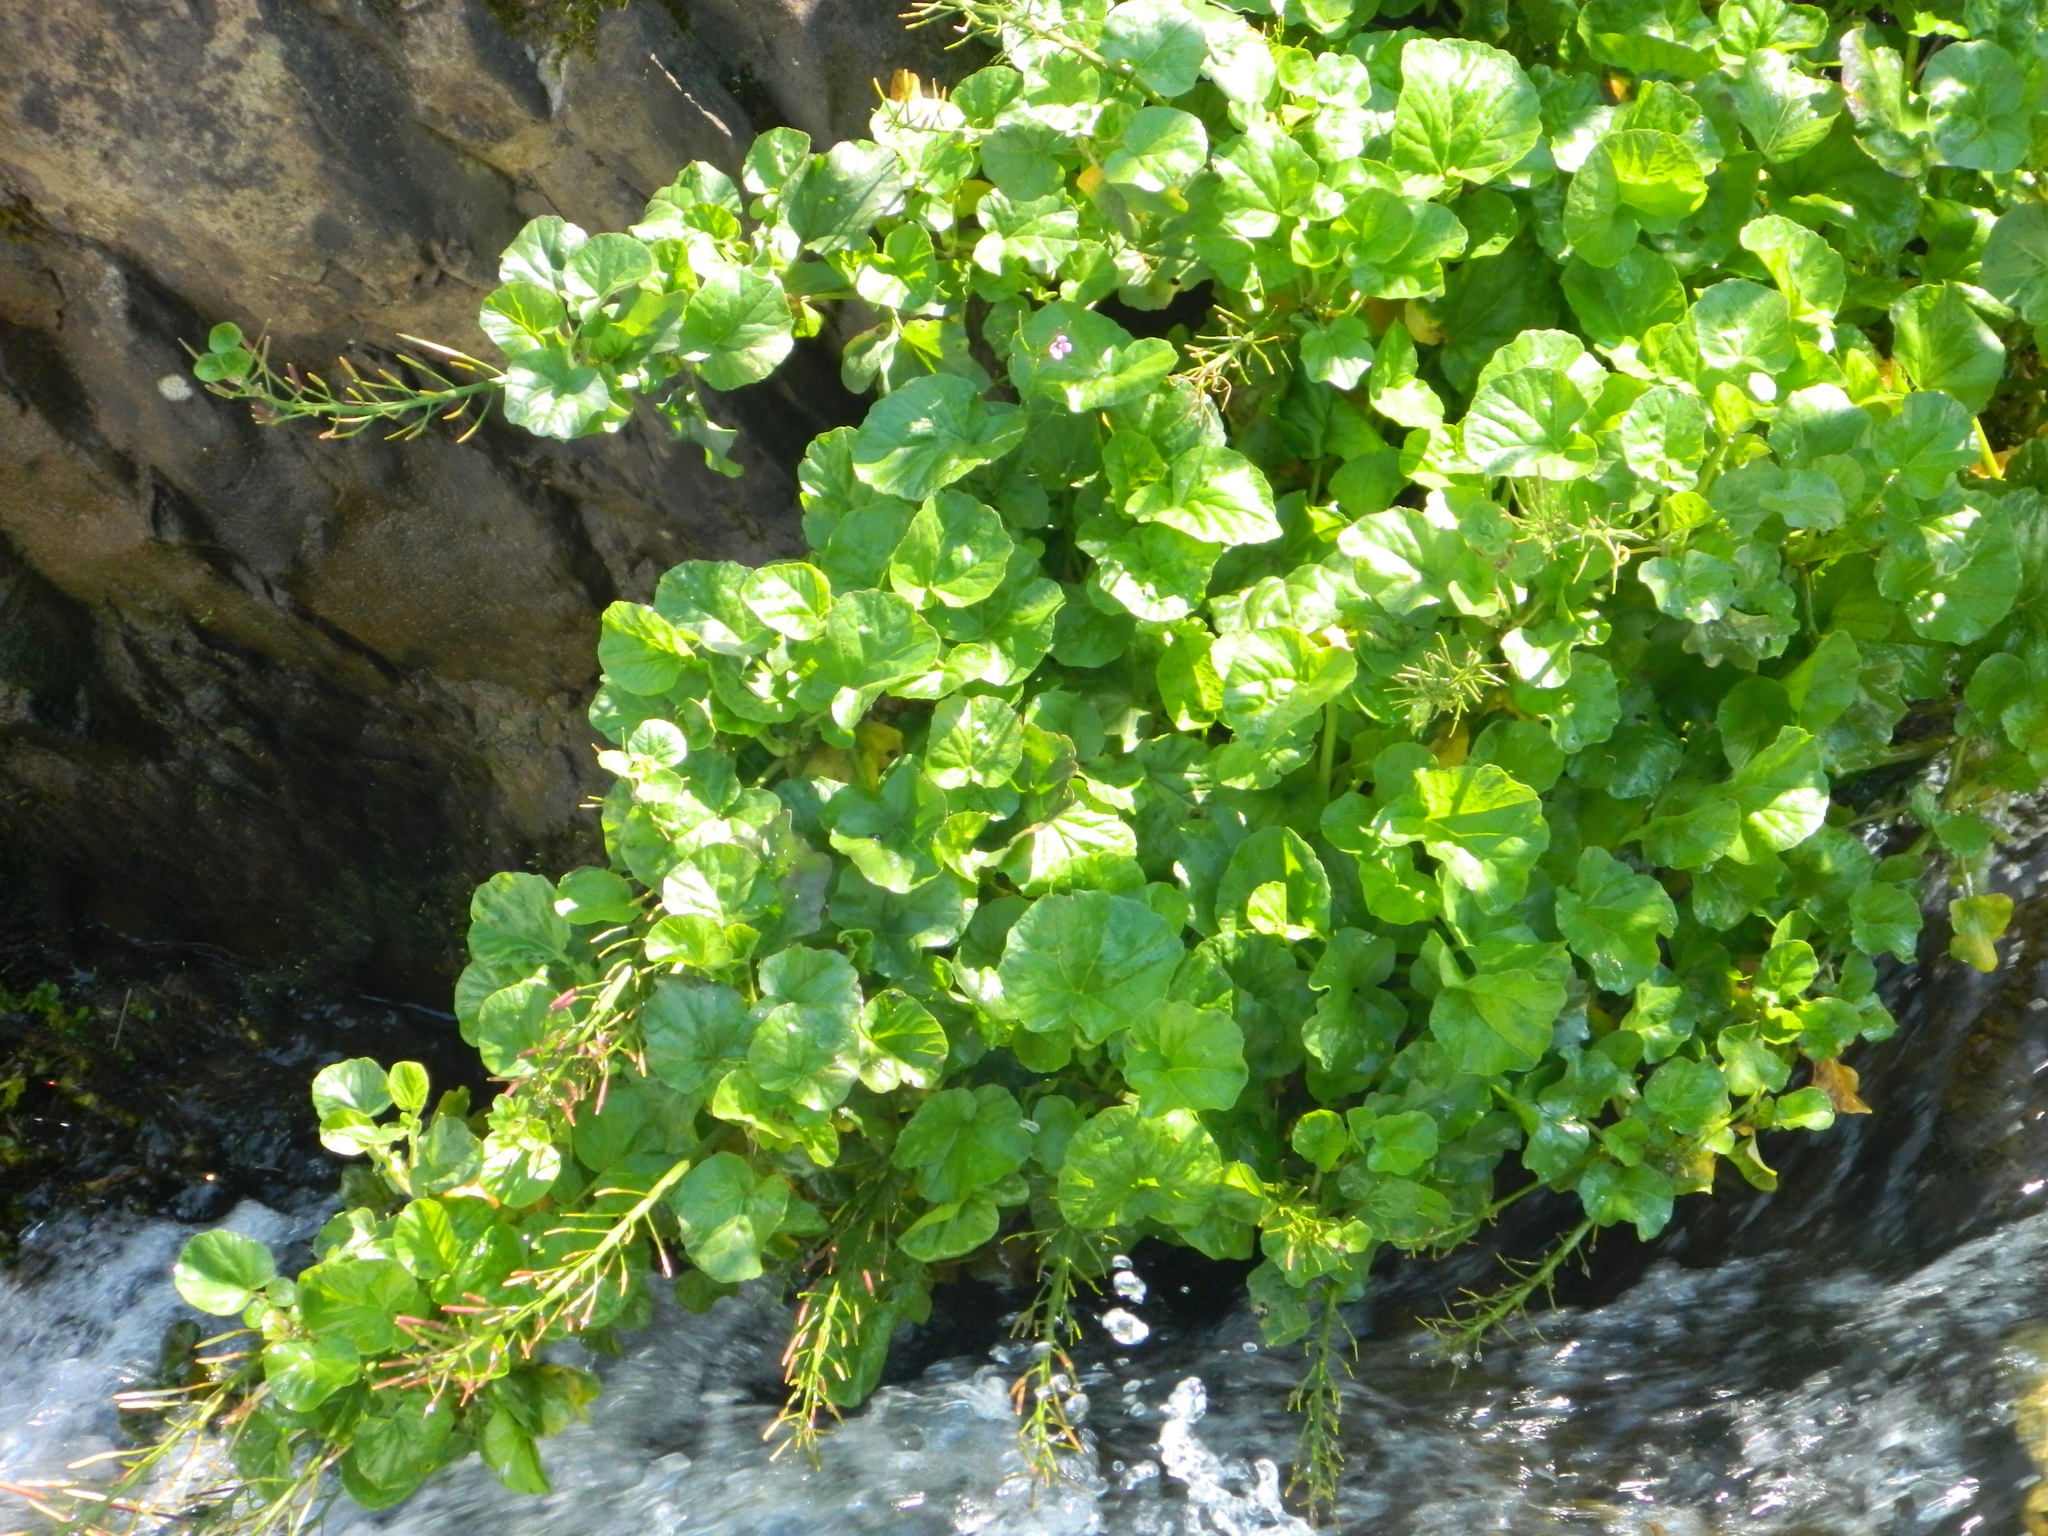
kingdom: Plantae
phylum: Tracheophyta
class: Magnoliopsida
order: Brassicales
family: Brassicaceae
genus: Cardamine
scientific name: Cardamine seidlitziana
